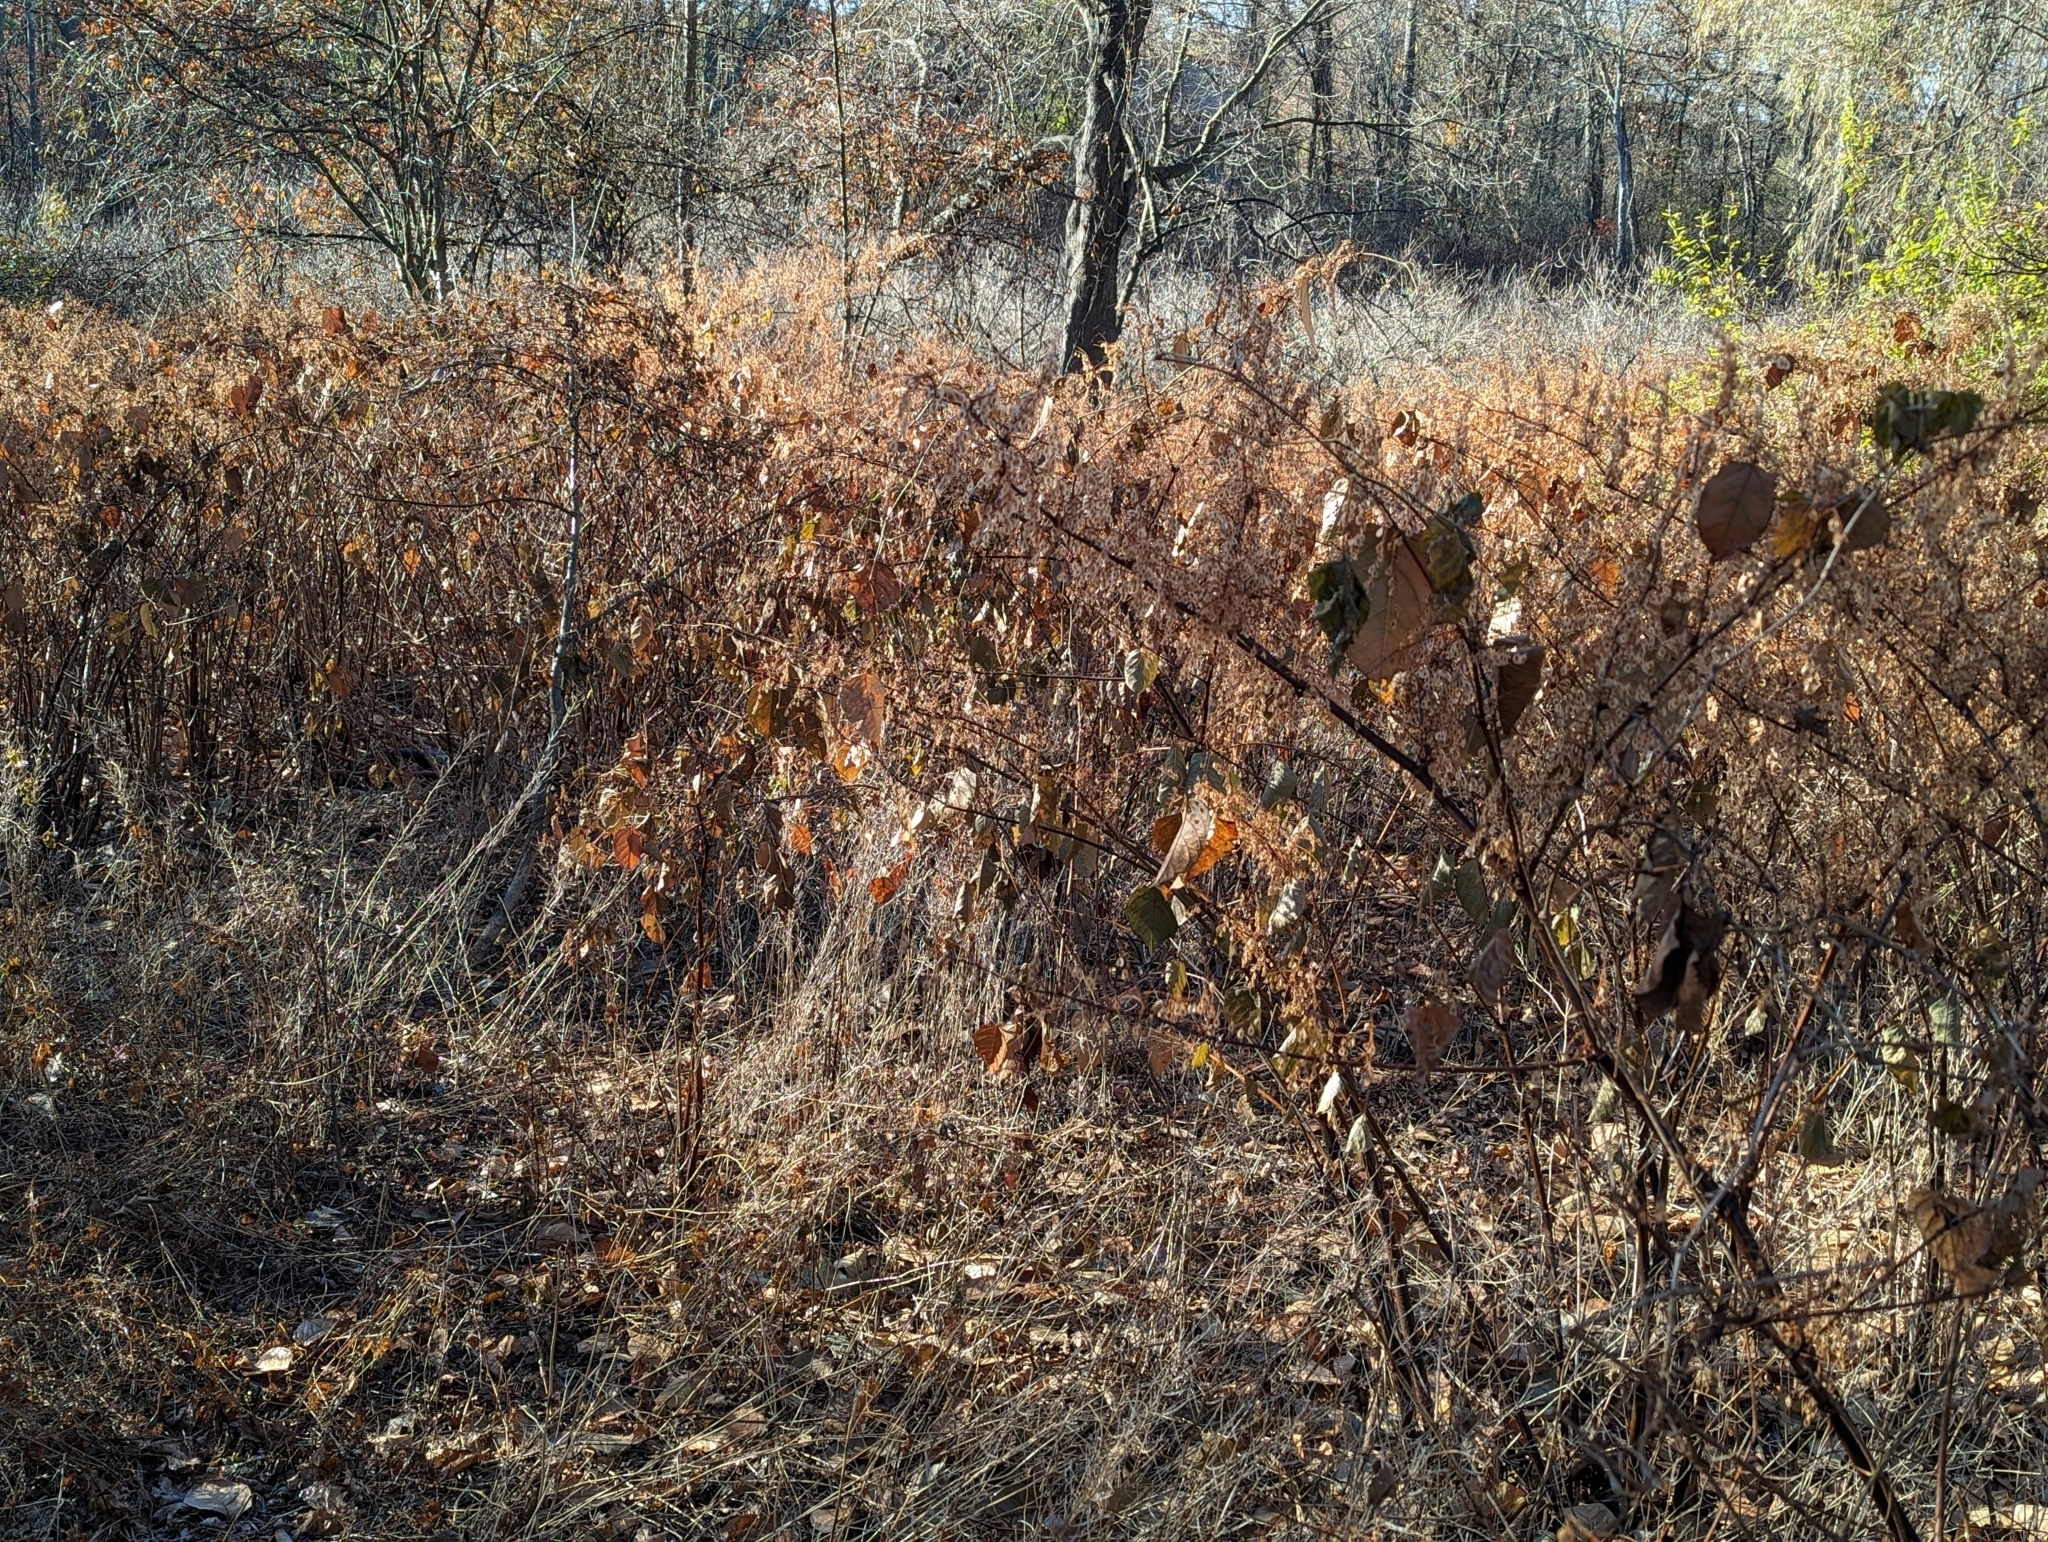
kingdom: Plantae
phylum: Tracheophyta
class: Magnoliopsida
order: Caryophyllales
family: Polygonaceae
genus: Reynoutria
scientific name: Reynoutria japonica
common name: Japanese knotweed
